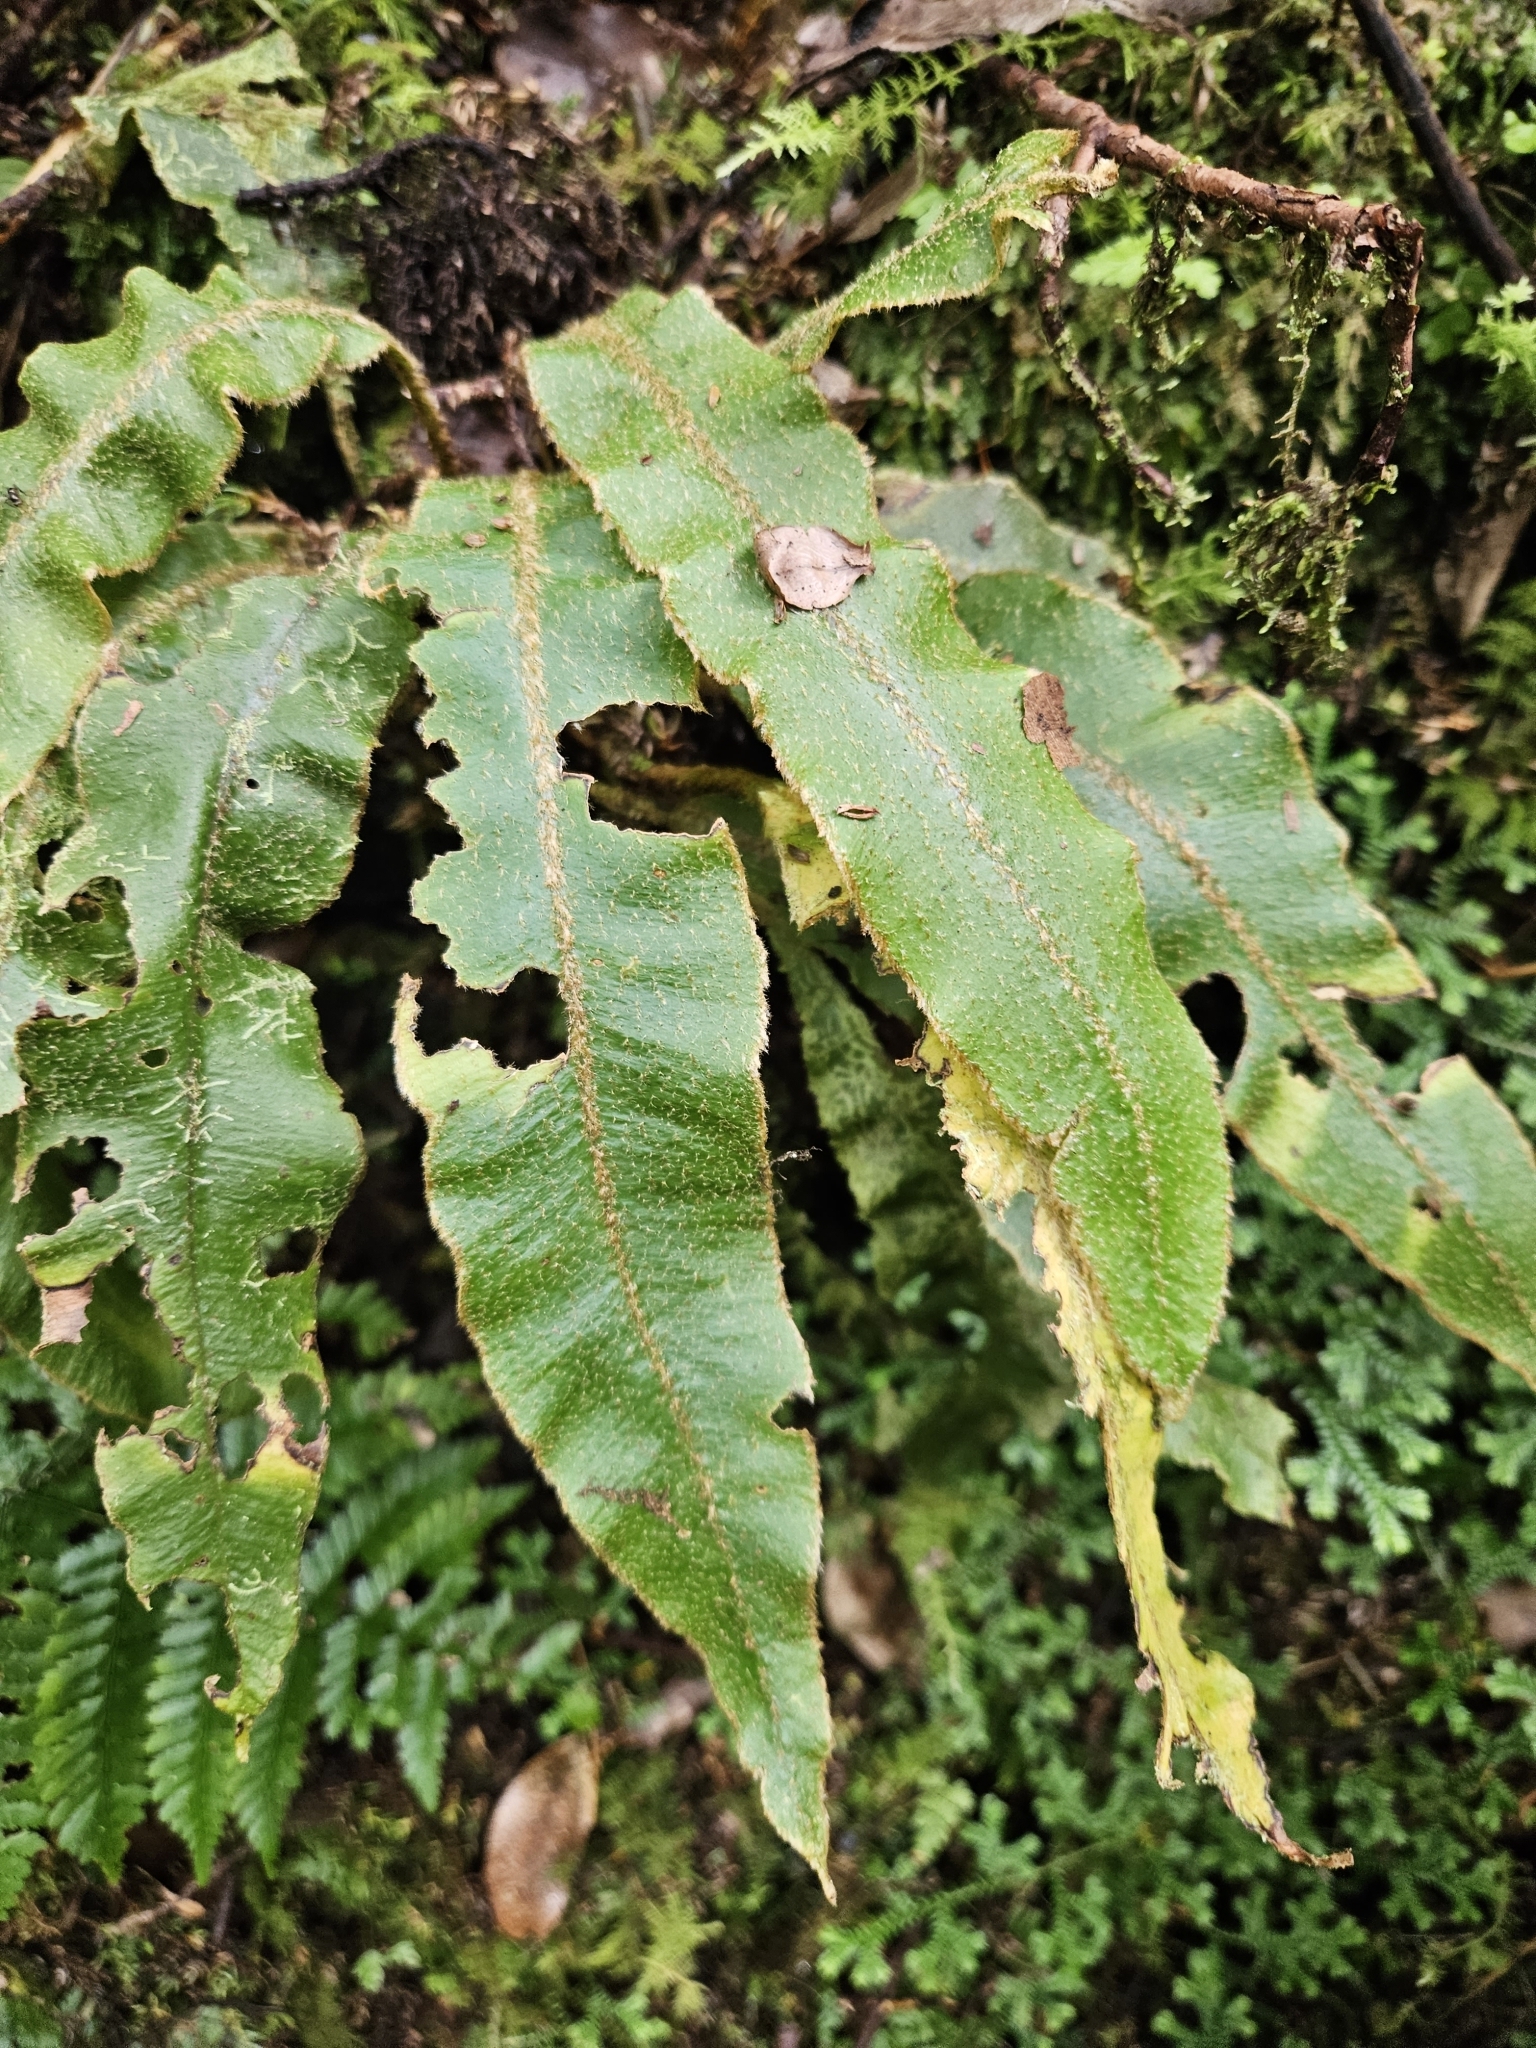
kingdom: Plantae
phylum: Tracheophyta
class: Polypodiopsida
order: Polypodiales
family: Dryopteridaceae
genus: Elaphoglossum
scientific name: Elaphoglossum semicylindricum
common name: Scaly tongue-fern
